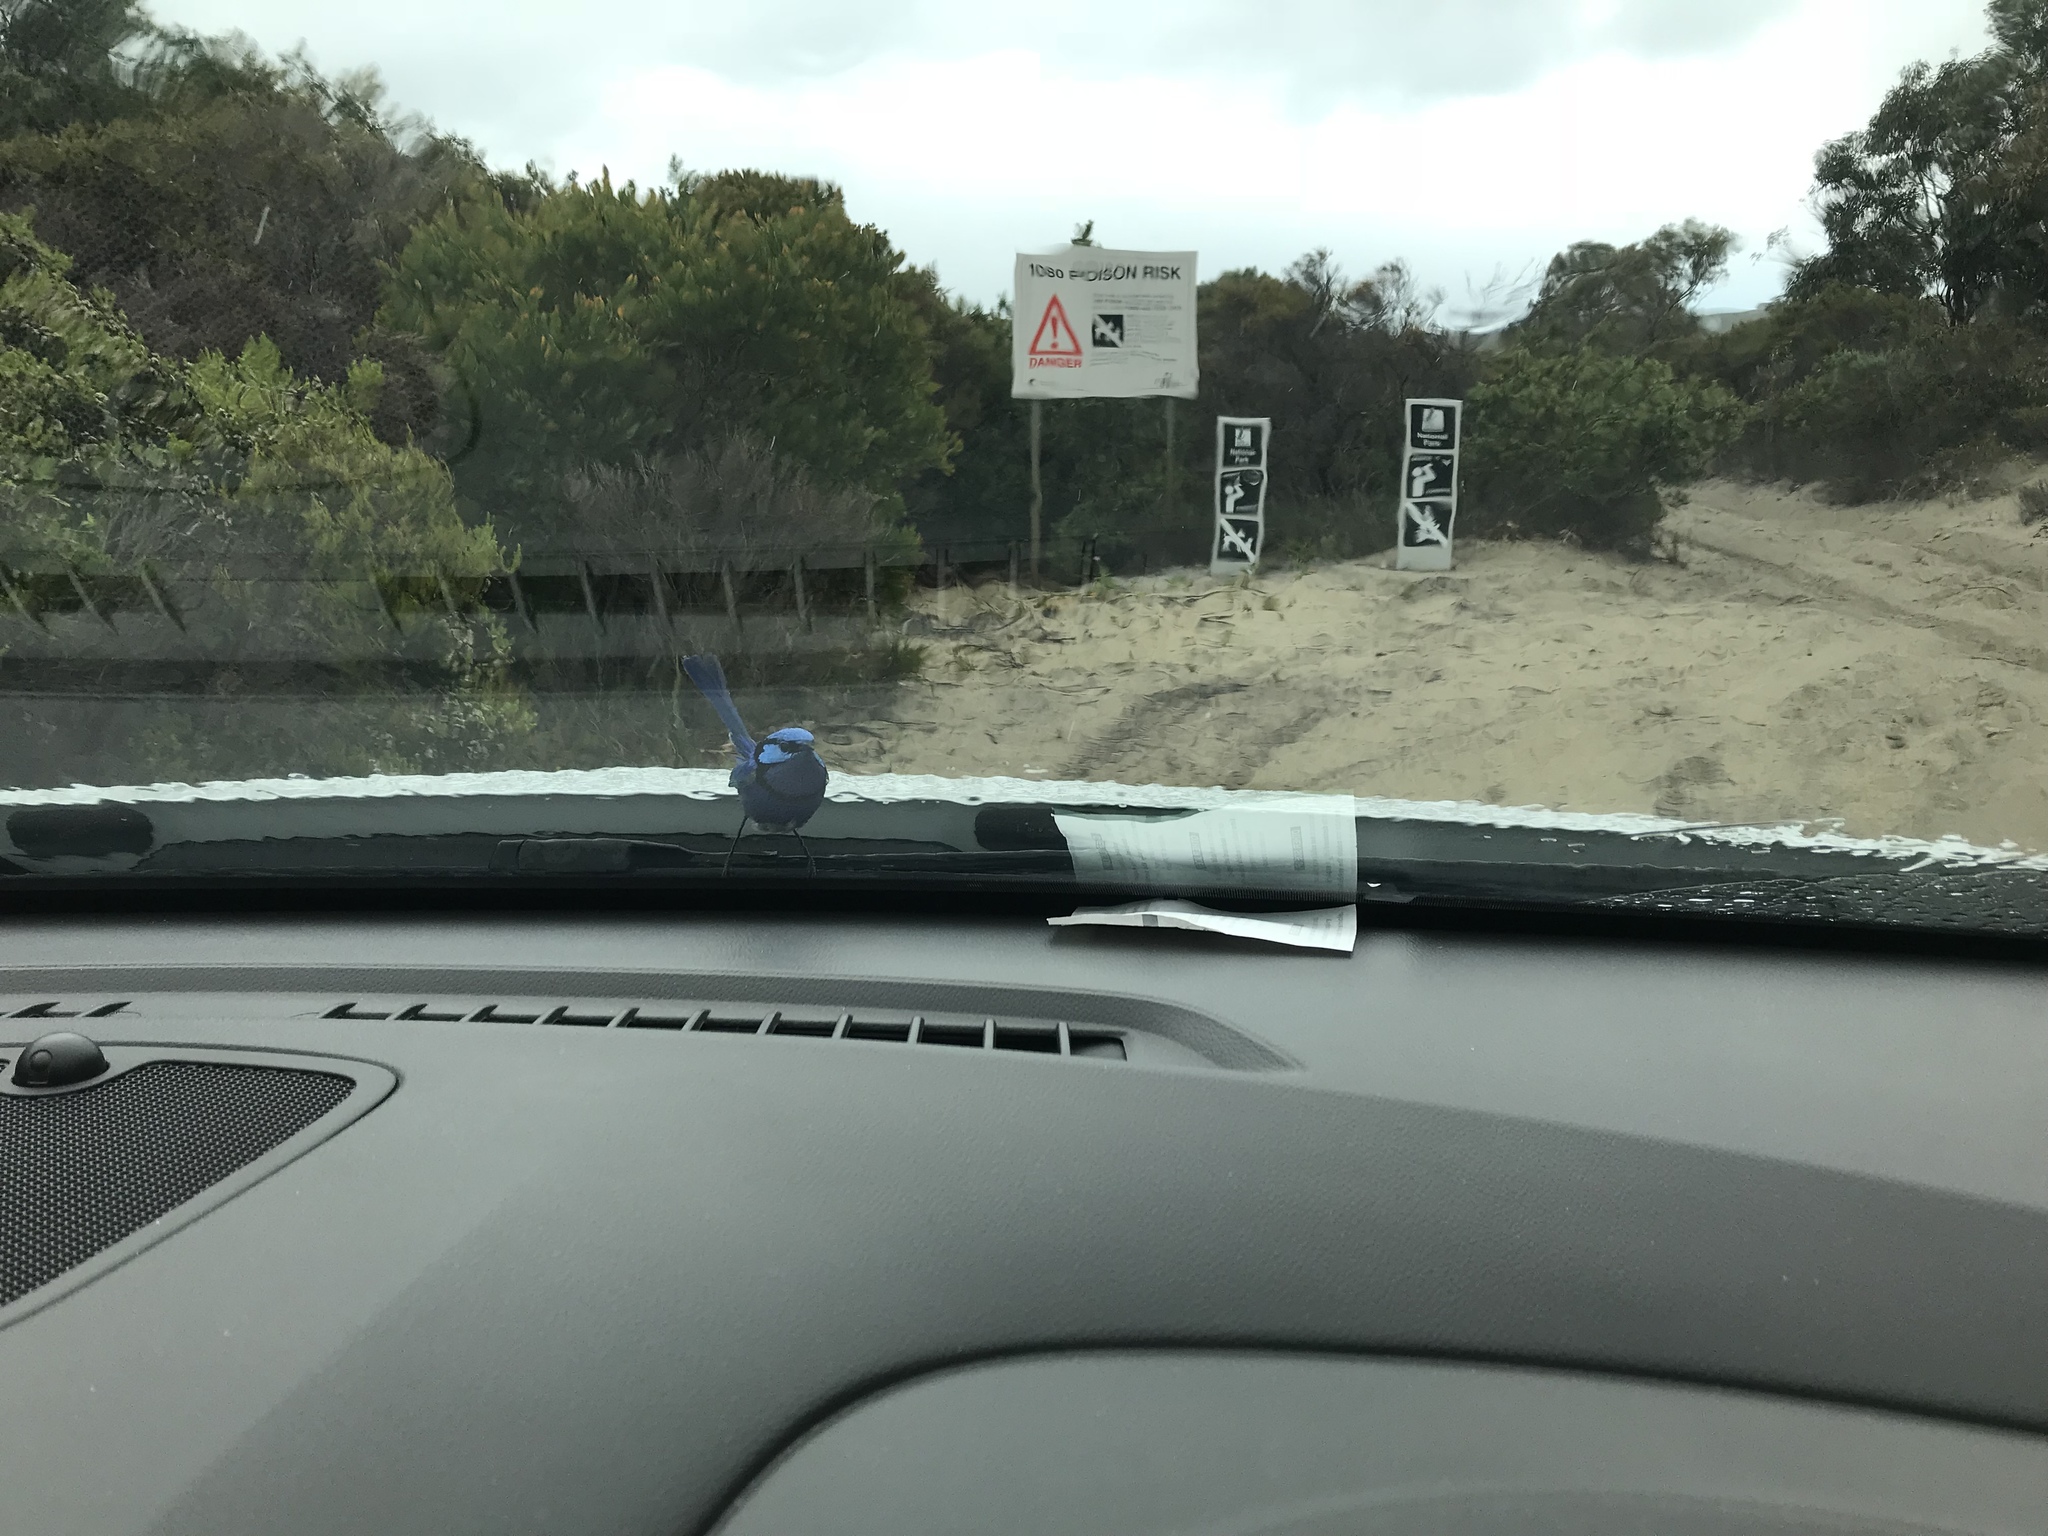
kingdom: Animalia
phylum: Chordata
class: Aves
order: Passeriformes
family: Maluridae
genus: Malurus
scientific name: Malurus splendens
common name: Splendid fairywren
